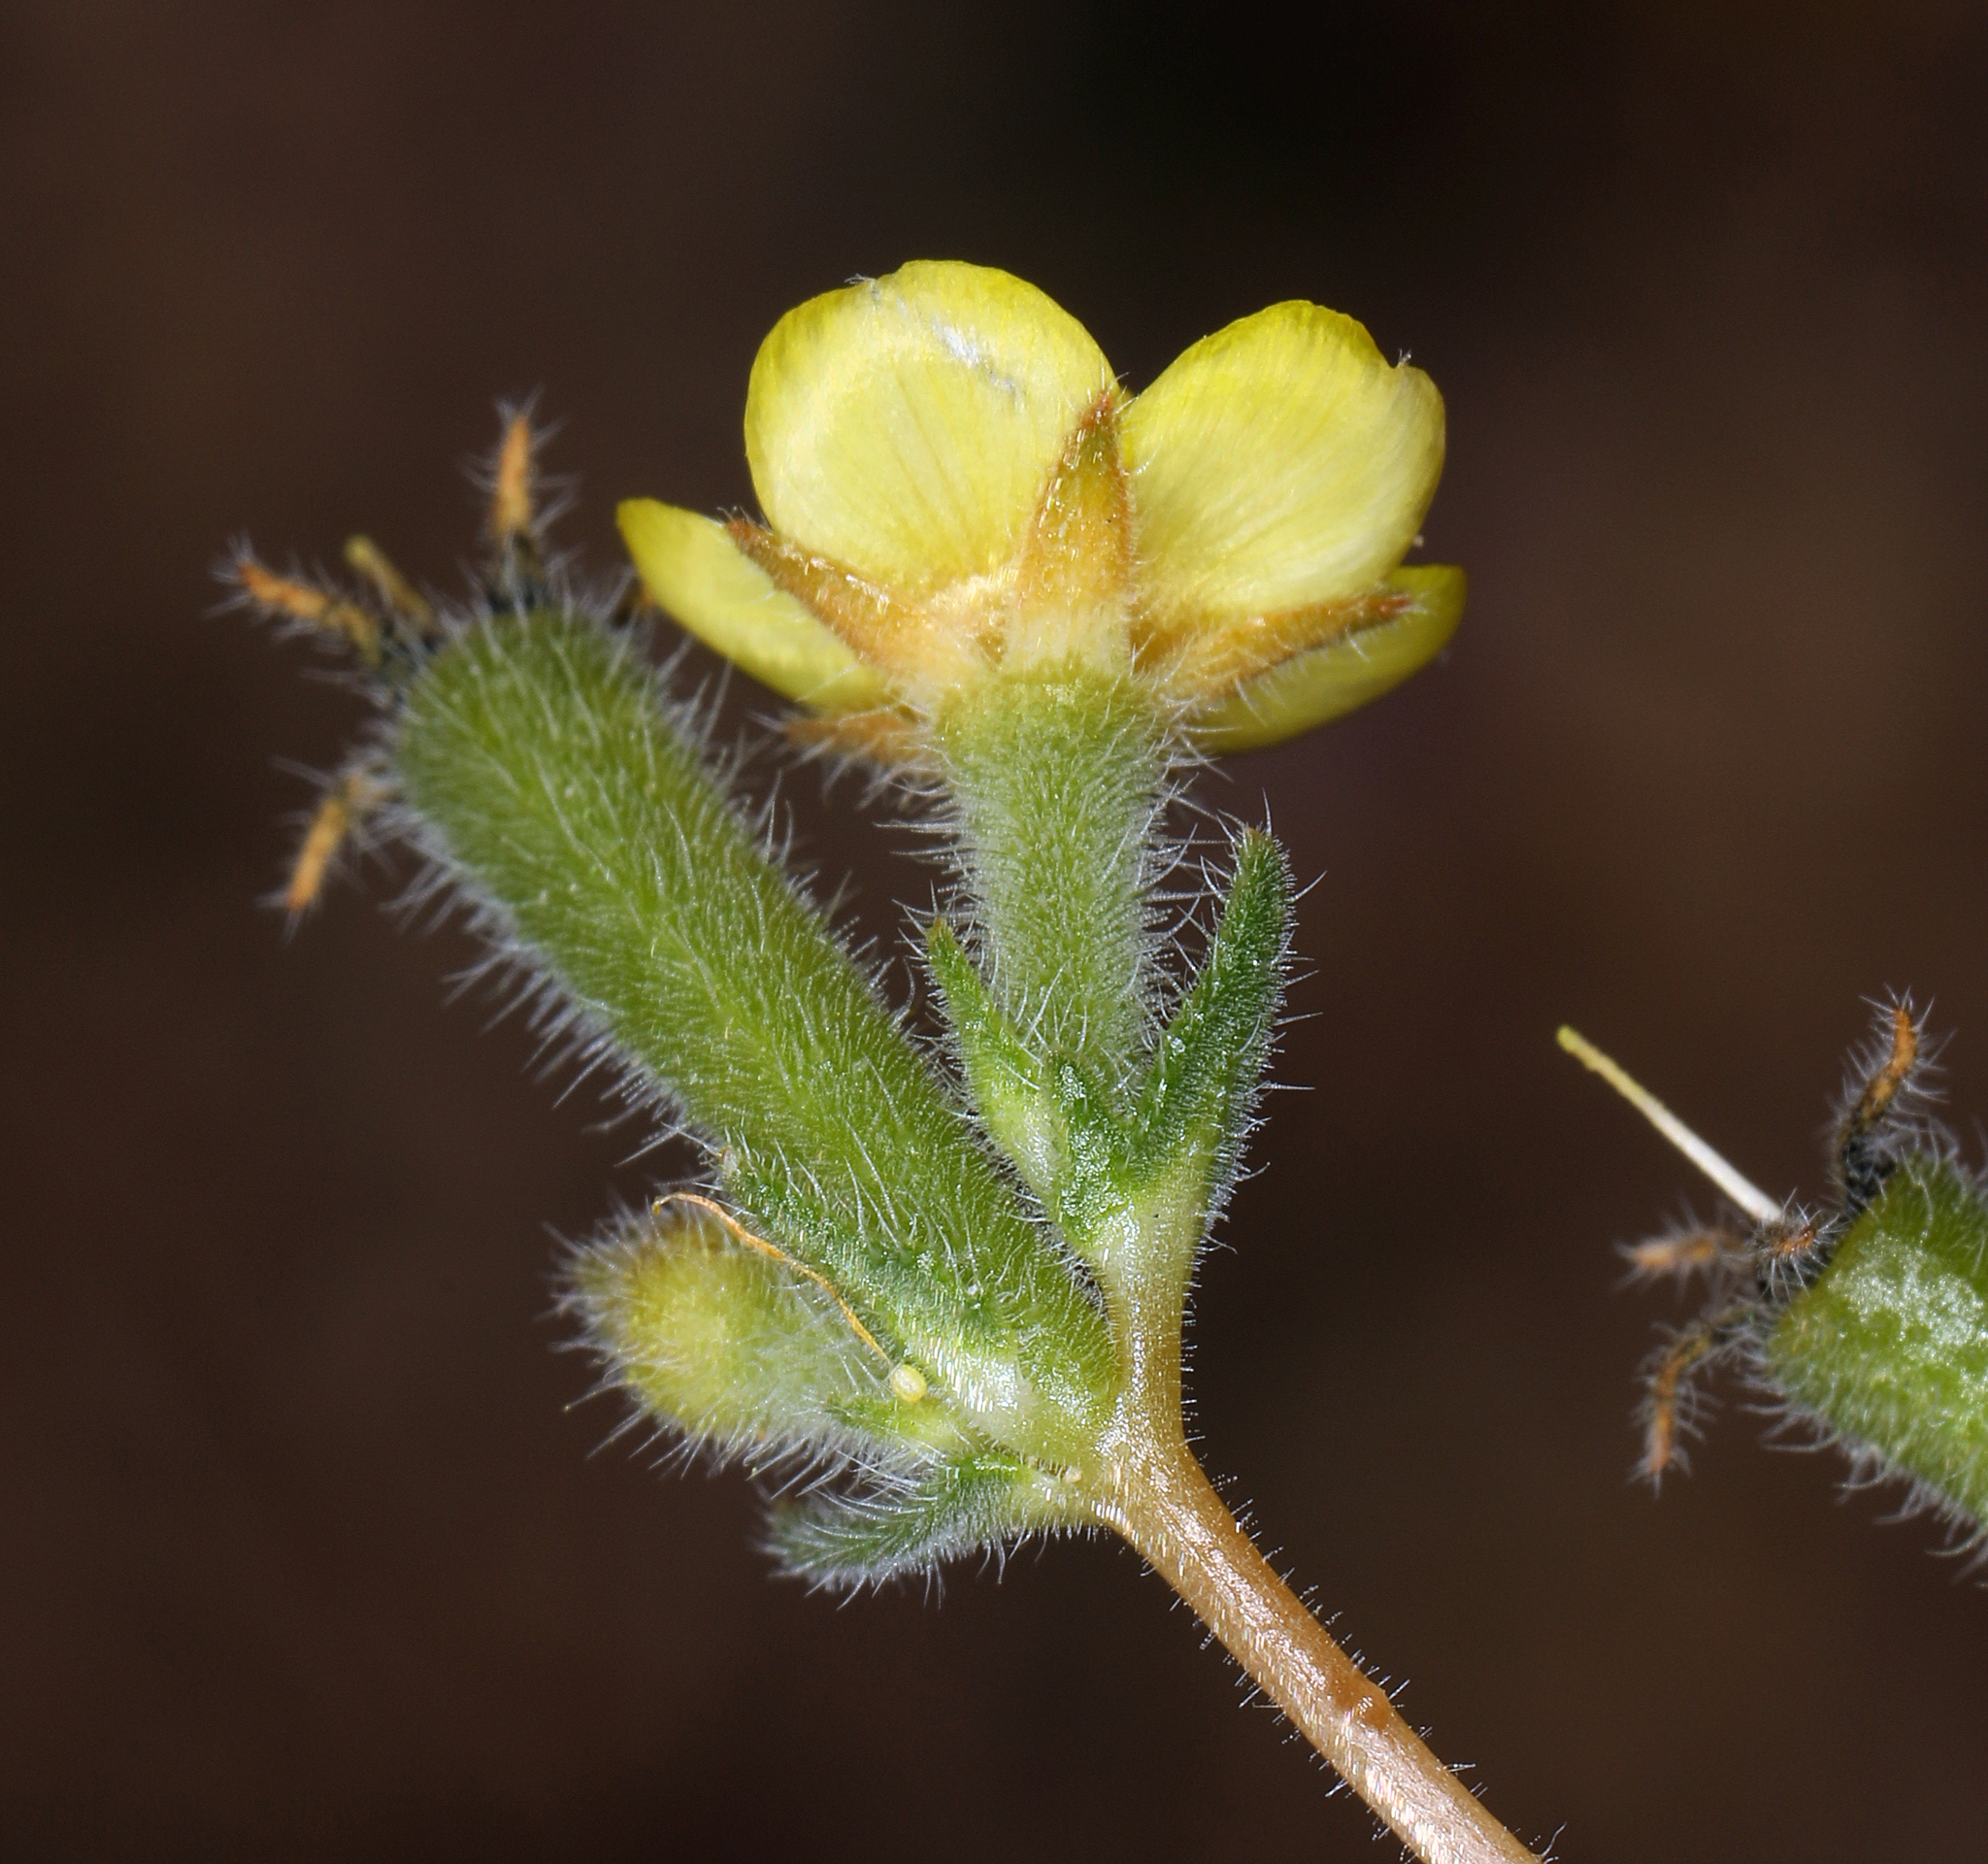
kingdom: Plantae
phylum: Tracheophyta
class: Magnoliopsida
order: Cornales
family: Loasaceae
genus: Mentzelia
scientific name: Mentzelia montana
